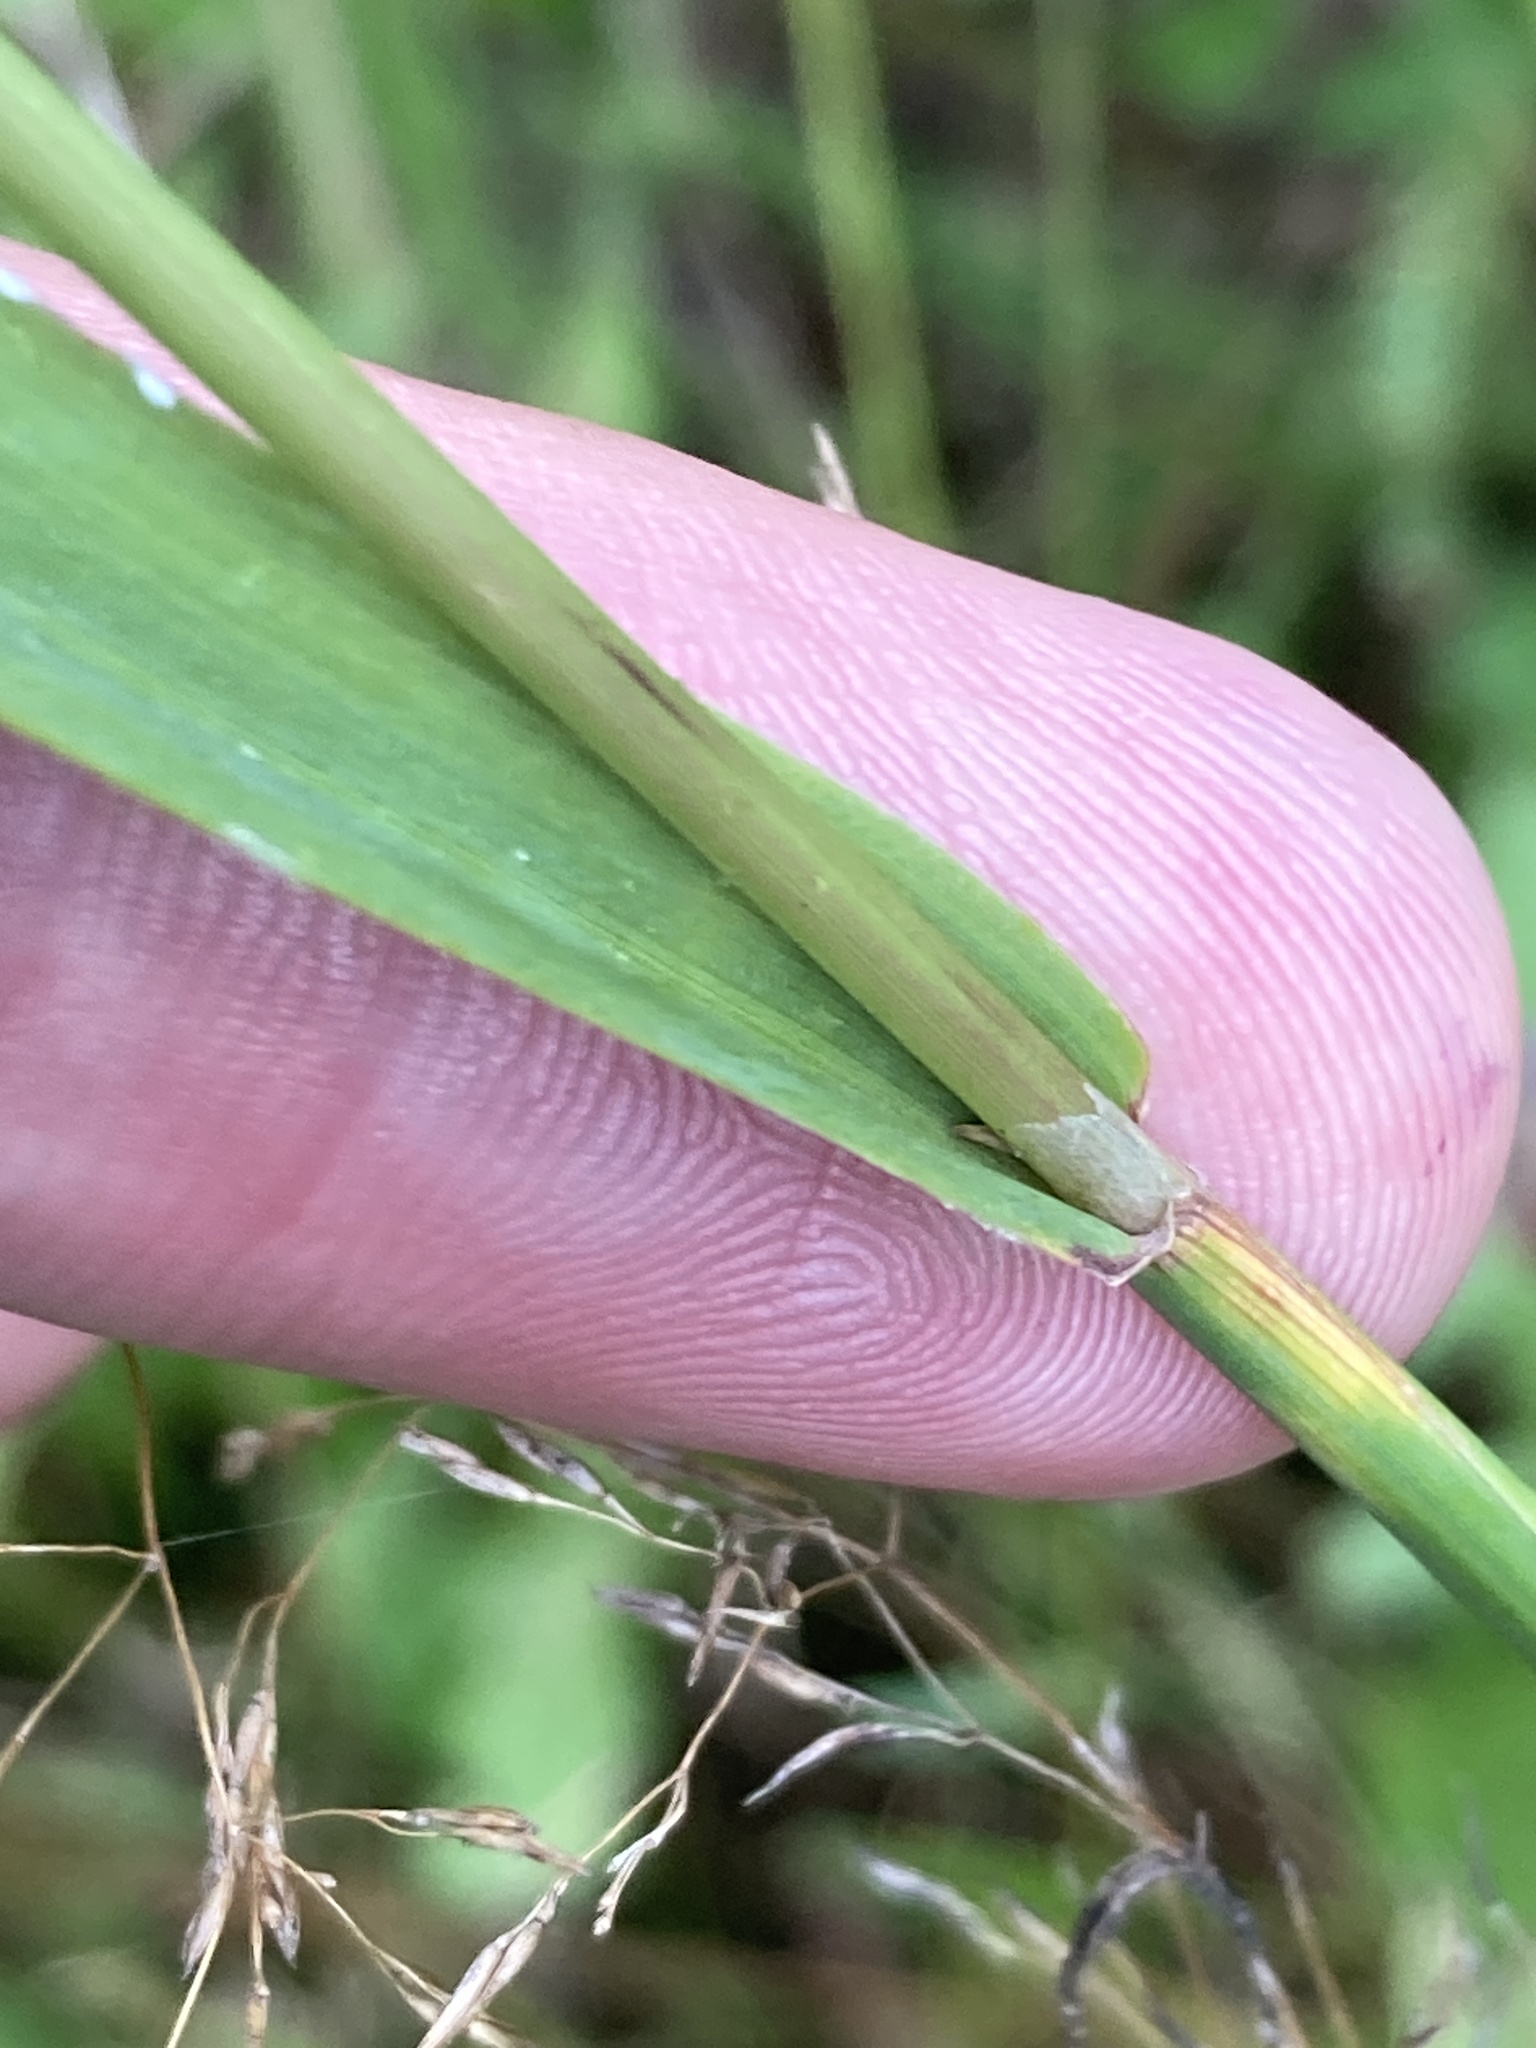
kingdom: Plantae
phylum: Tracheophyta
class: Liliopsida
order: Poales
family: Poaceae
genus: Phleum
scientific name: Phleum pratense
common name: Timothy grass
